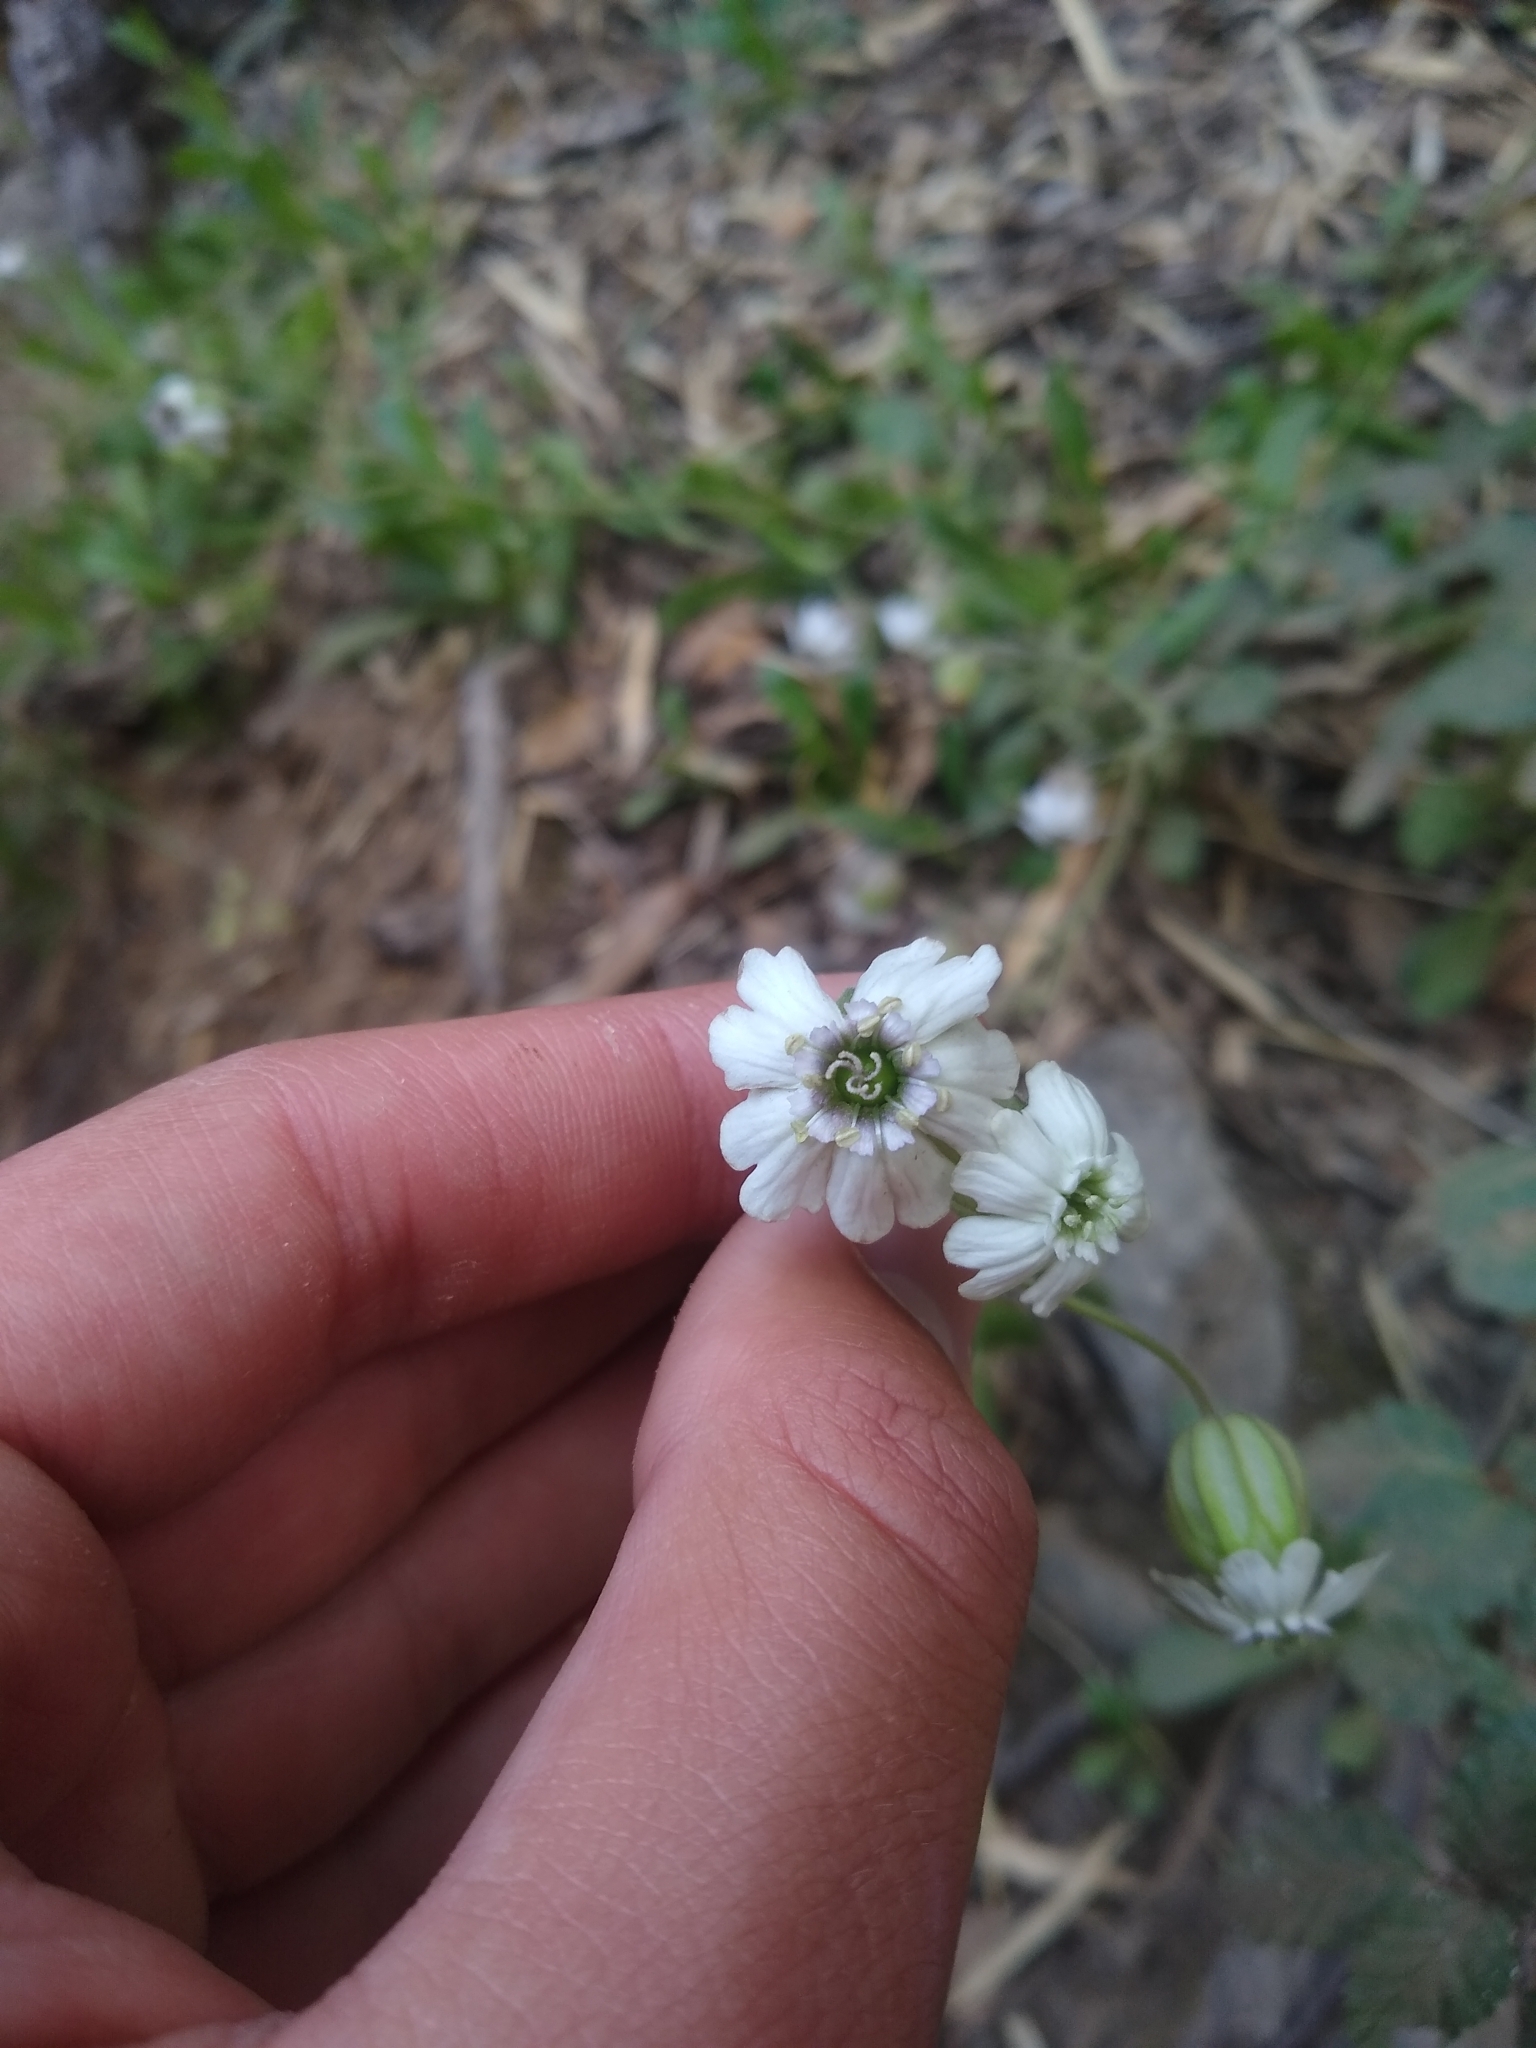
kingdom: Plantae
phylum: Tracheophyta
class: Magnoliopsida
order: Caryophyllales
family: Caryophyllaceae
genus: Silene
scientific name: Silene andicola
